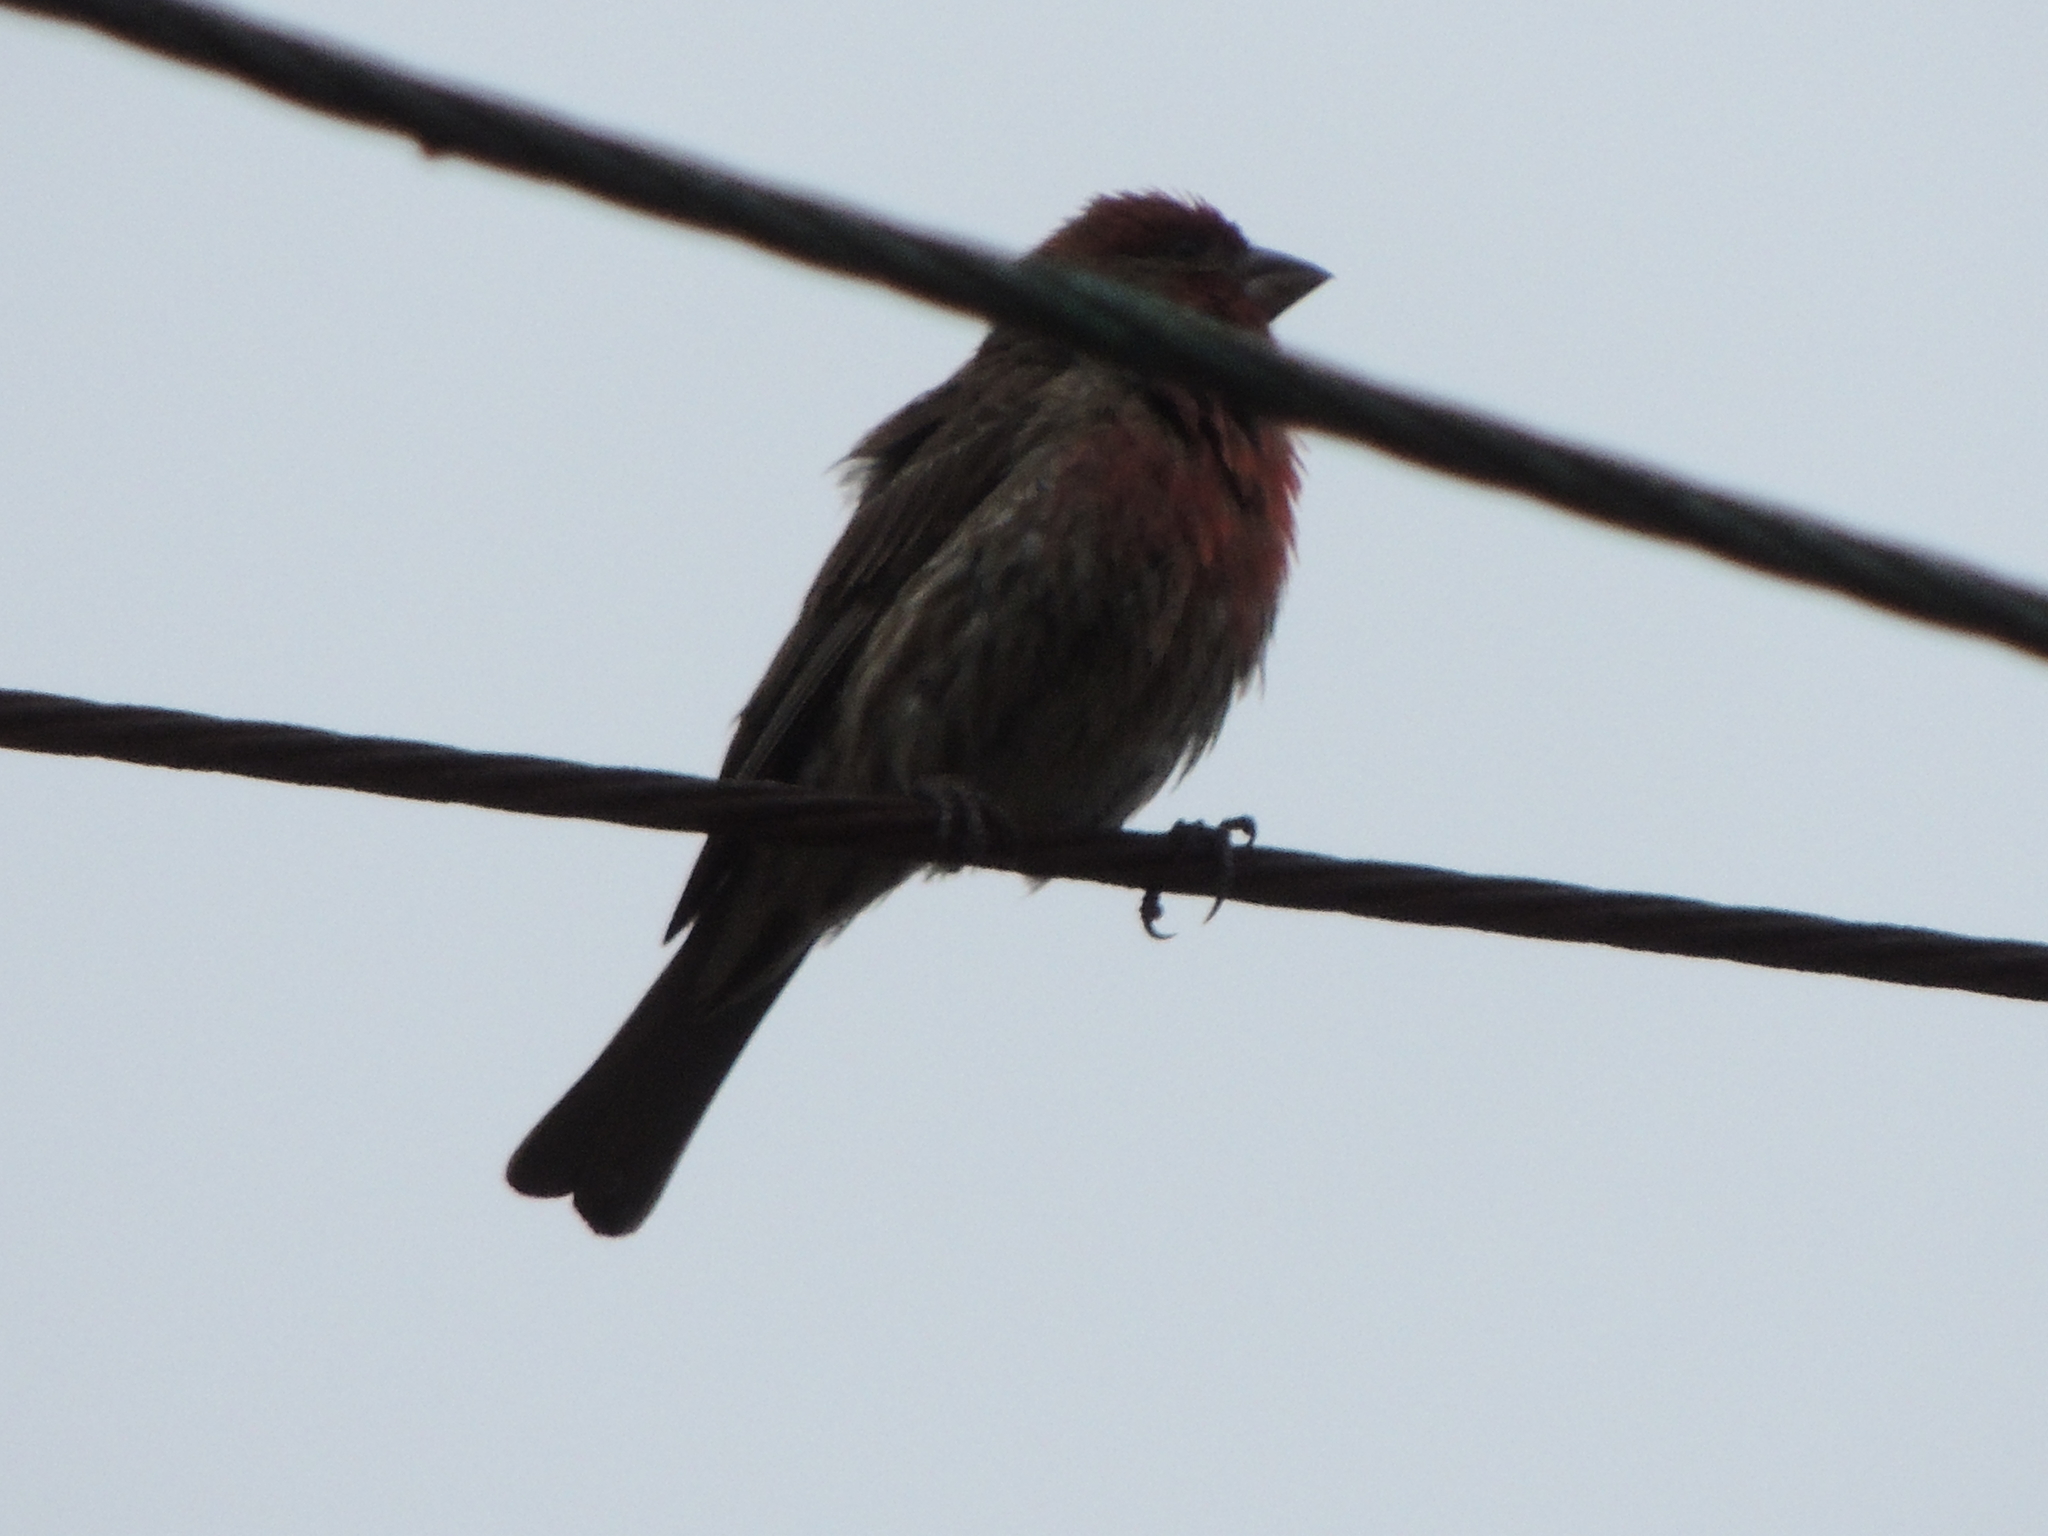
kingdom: Animalia
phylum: Chordata
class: Aves
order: Passeriformes
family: Fringillidae
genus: Haemorhous
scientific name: Haemorhous mexicanus
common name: House finch
